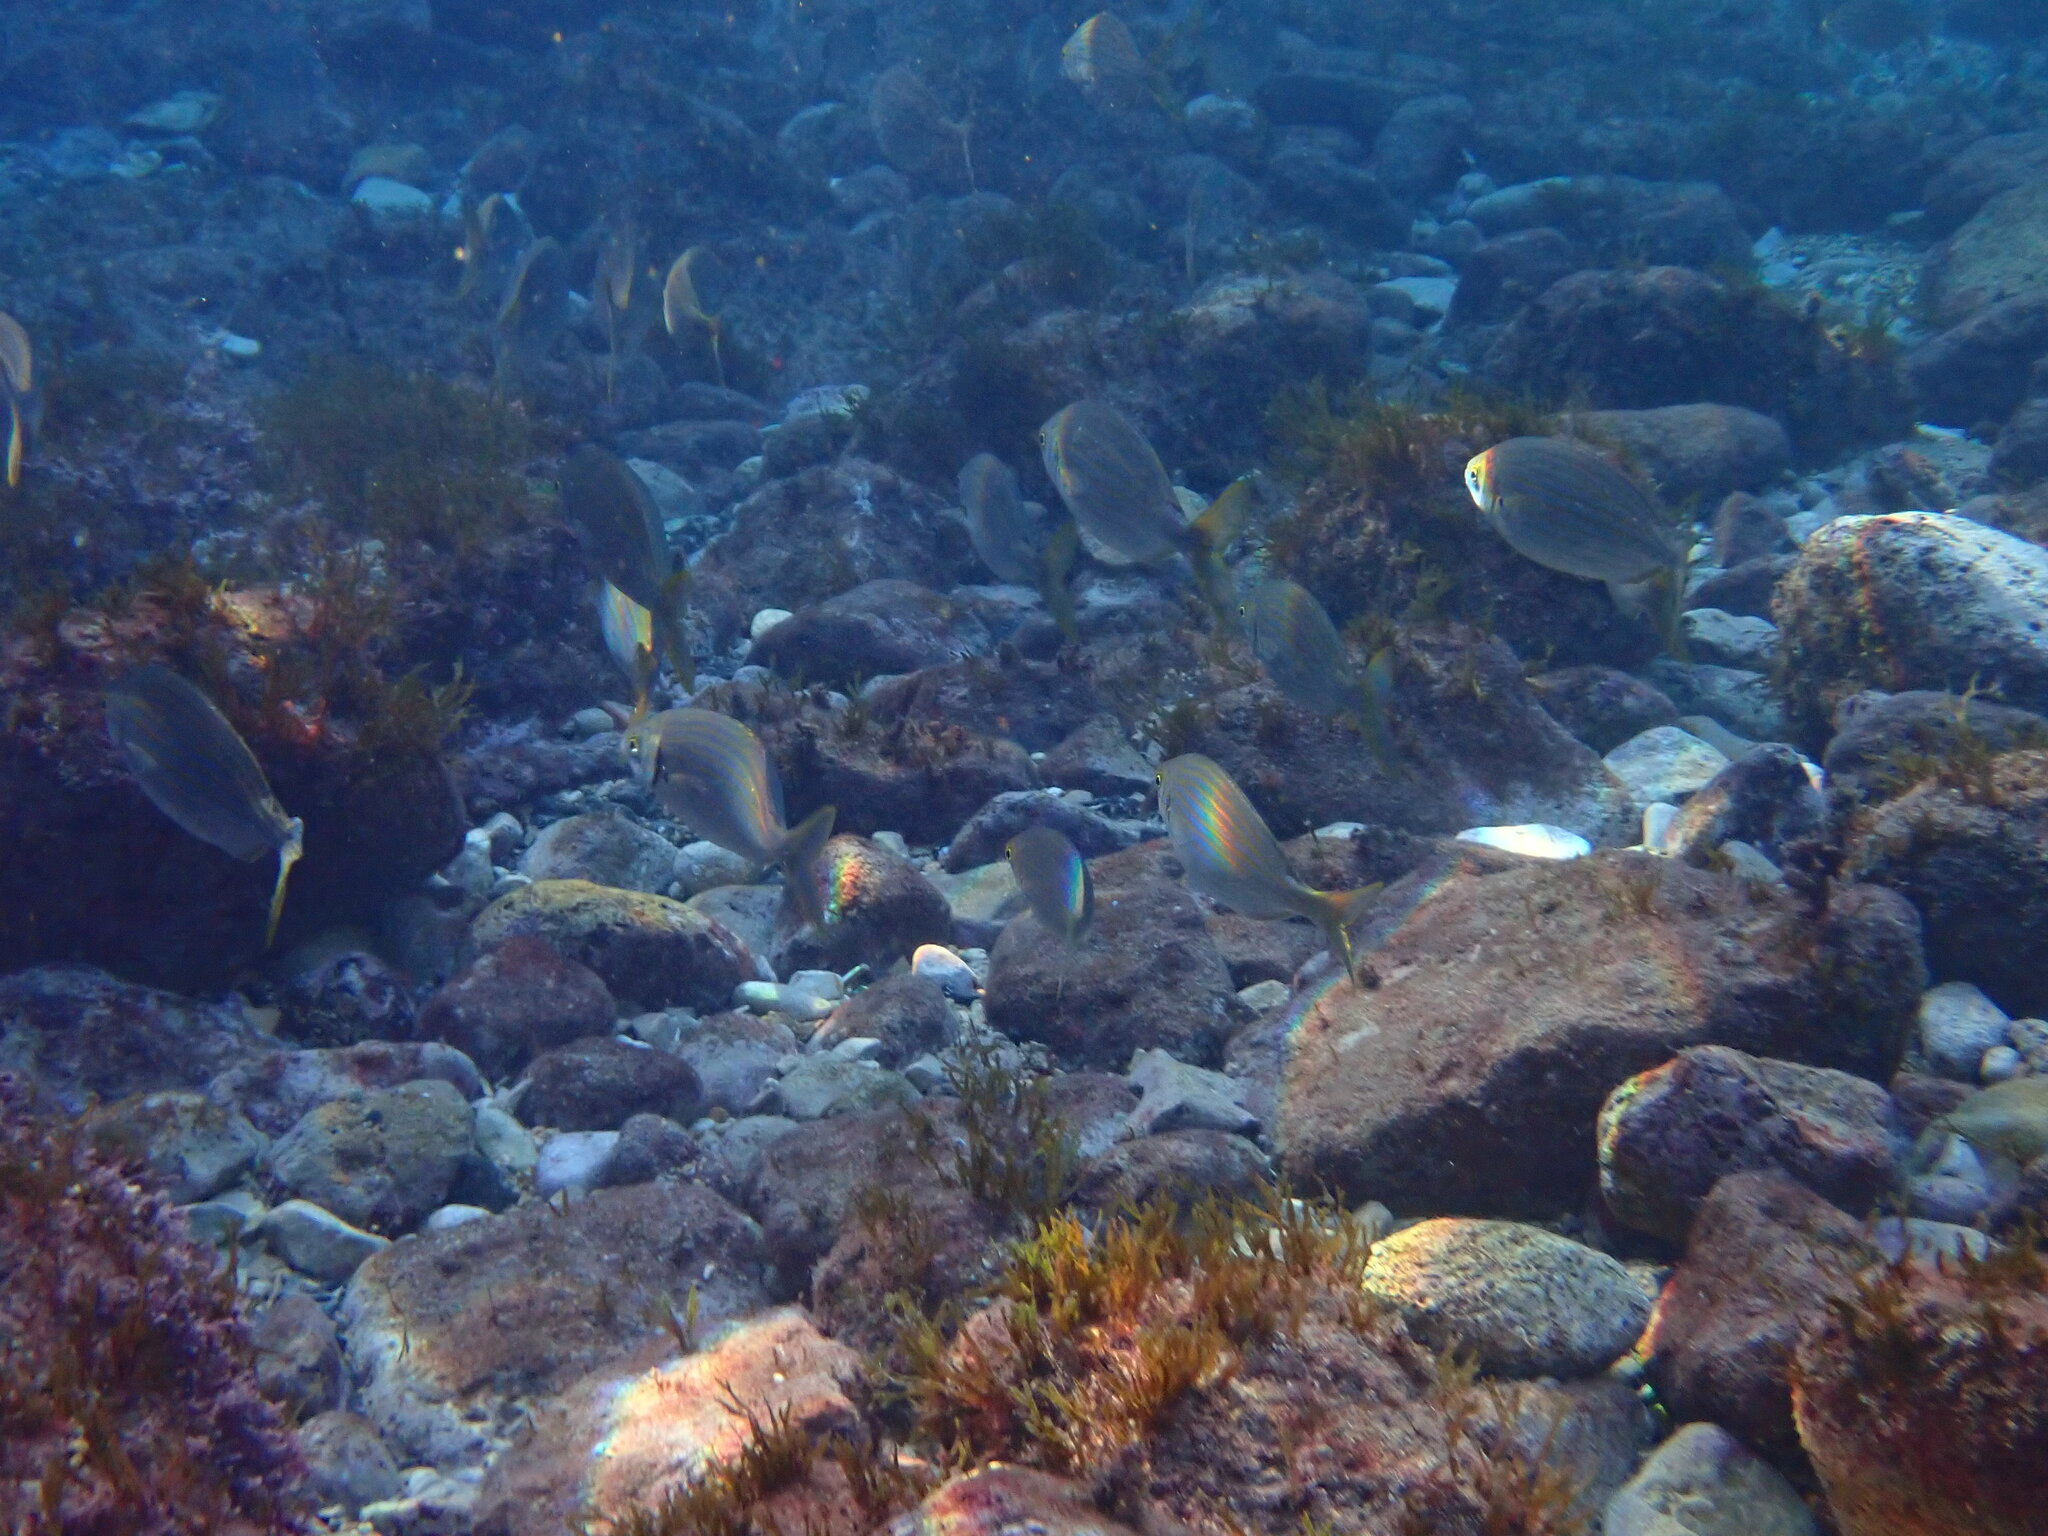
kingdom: Animalia
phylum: Chordata
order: Perciformes
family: Sparidae
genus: Sarpa
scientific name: Sarpa salpa
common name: Salema
